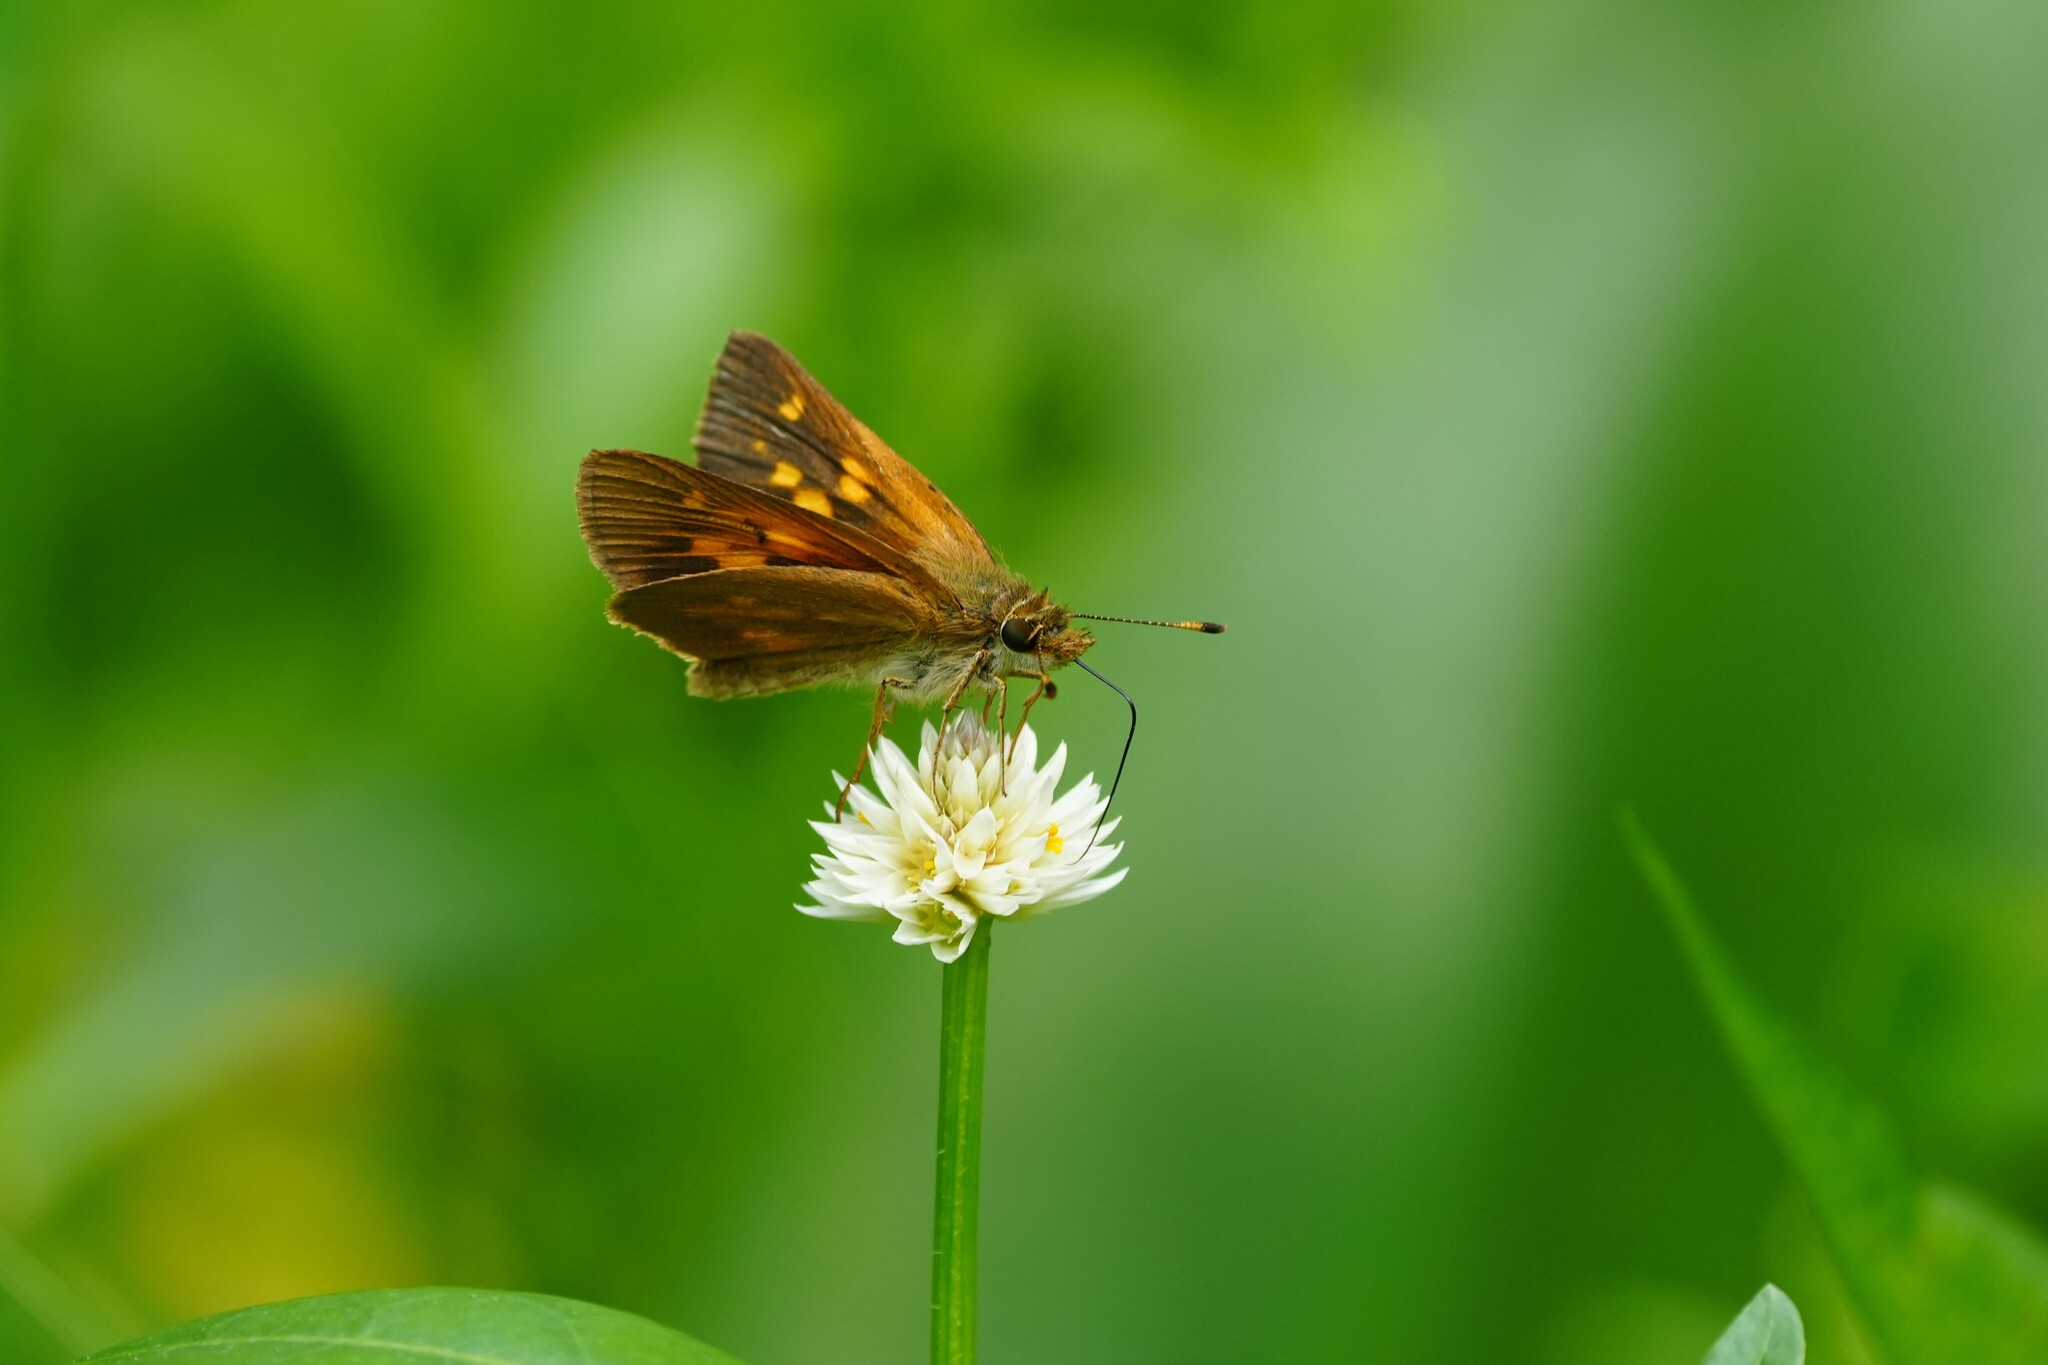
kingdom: Animalia
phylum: Arthropoda
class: Insecta
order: Lepidoptera
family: Hesperiidae
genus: Poanes
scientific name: Poanes viator
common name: Broad-winged skipper
